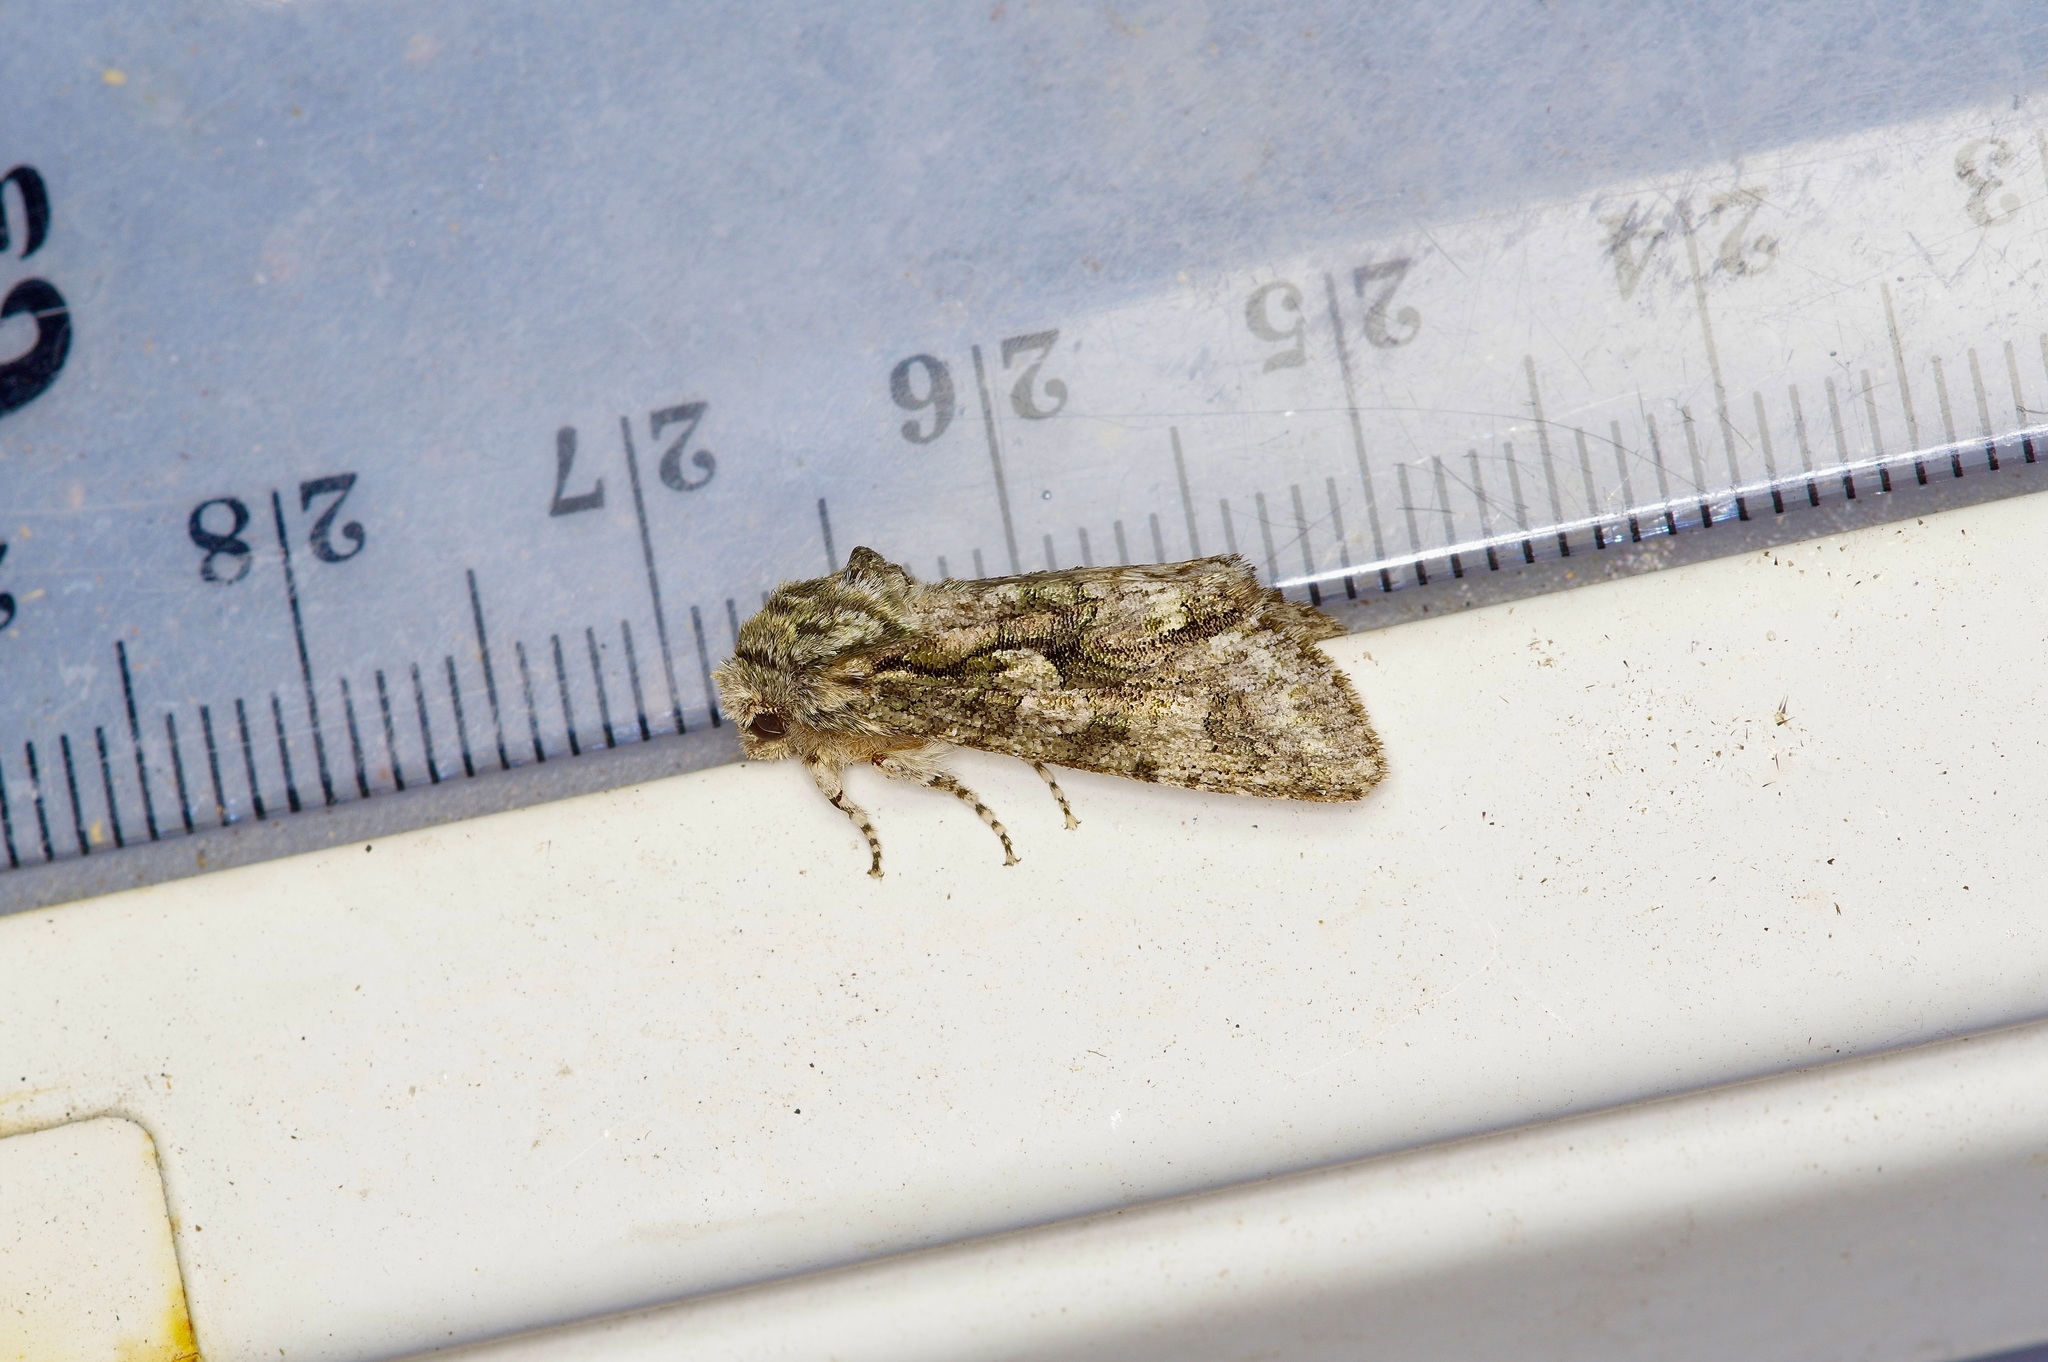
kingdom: Animalia
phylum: Arthropoda
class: Insecta
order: Lepidoptera
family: Noctuidae
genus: Psaphida
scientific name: Psaphida resumens
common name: Figure-eight sallow
